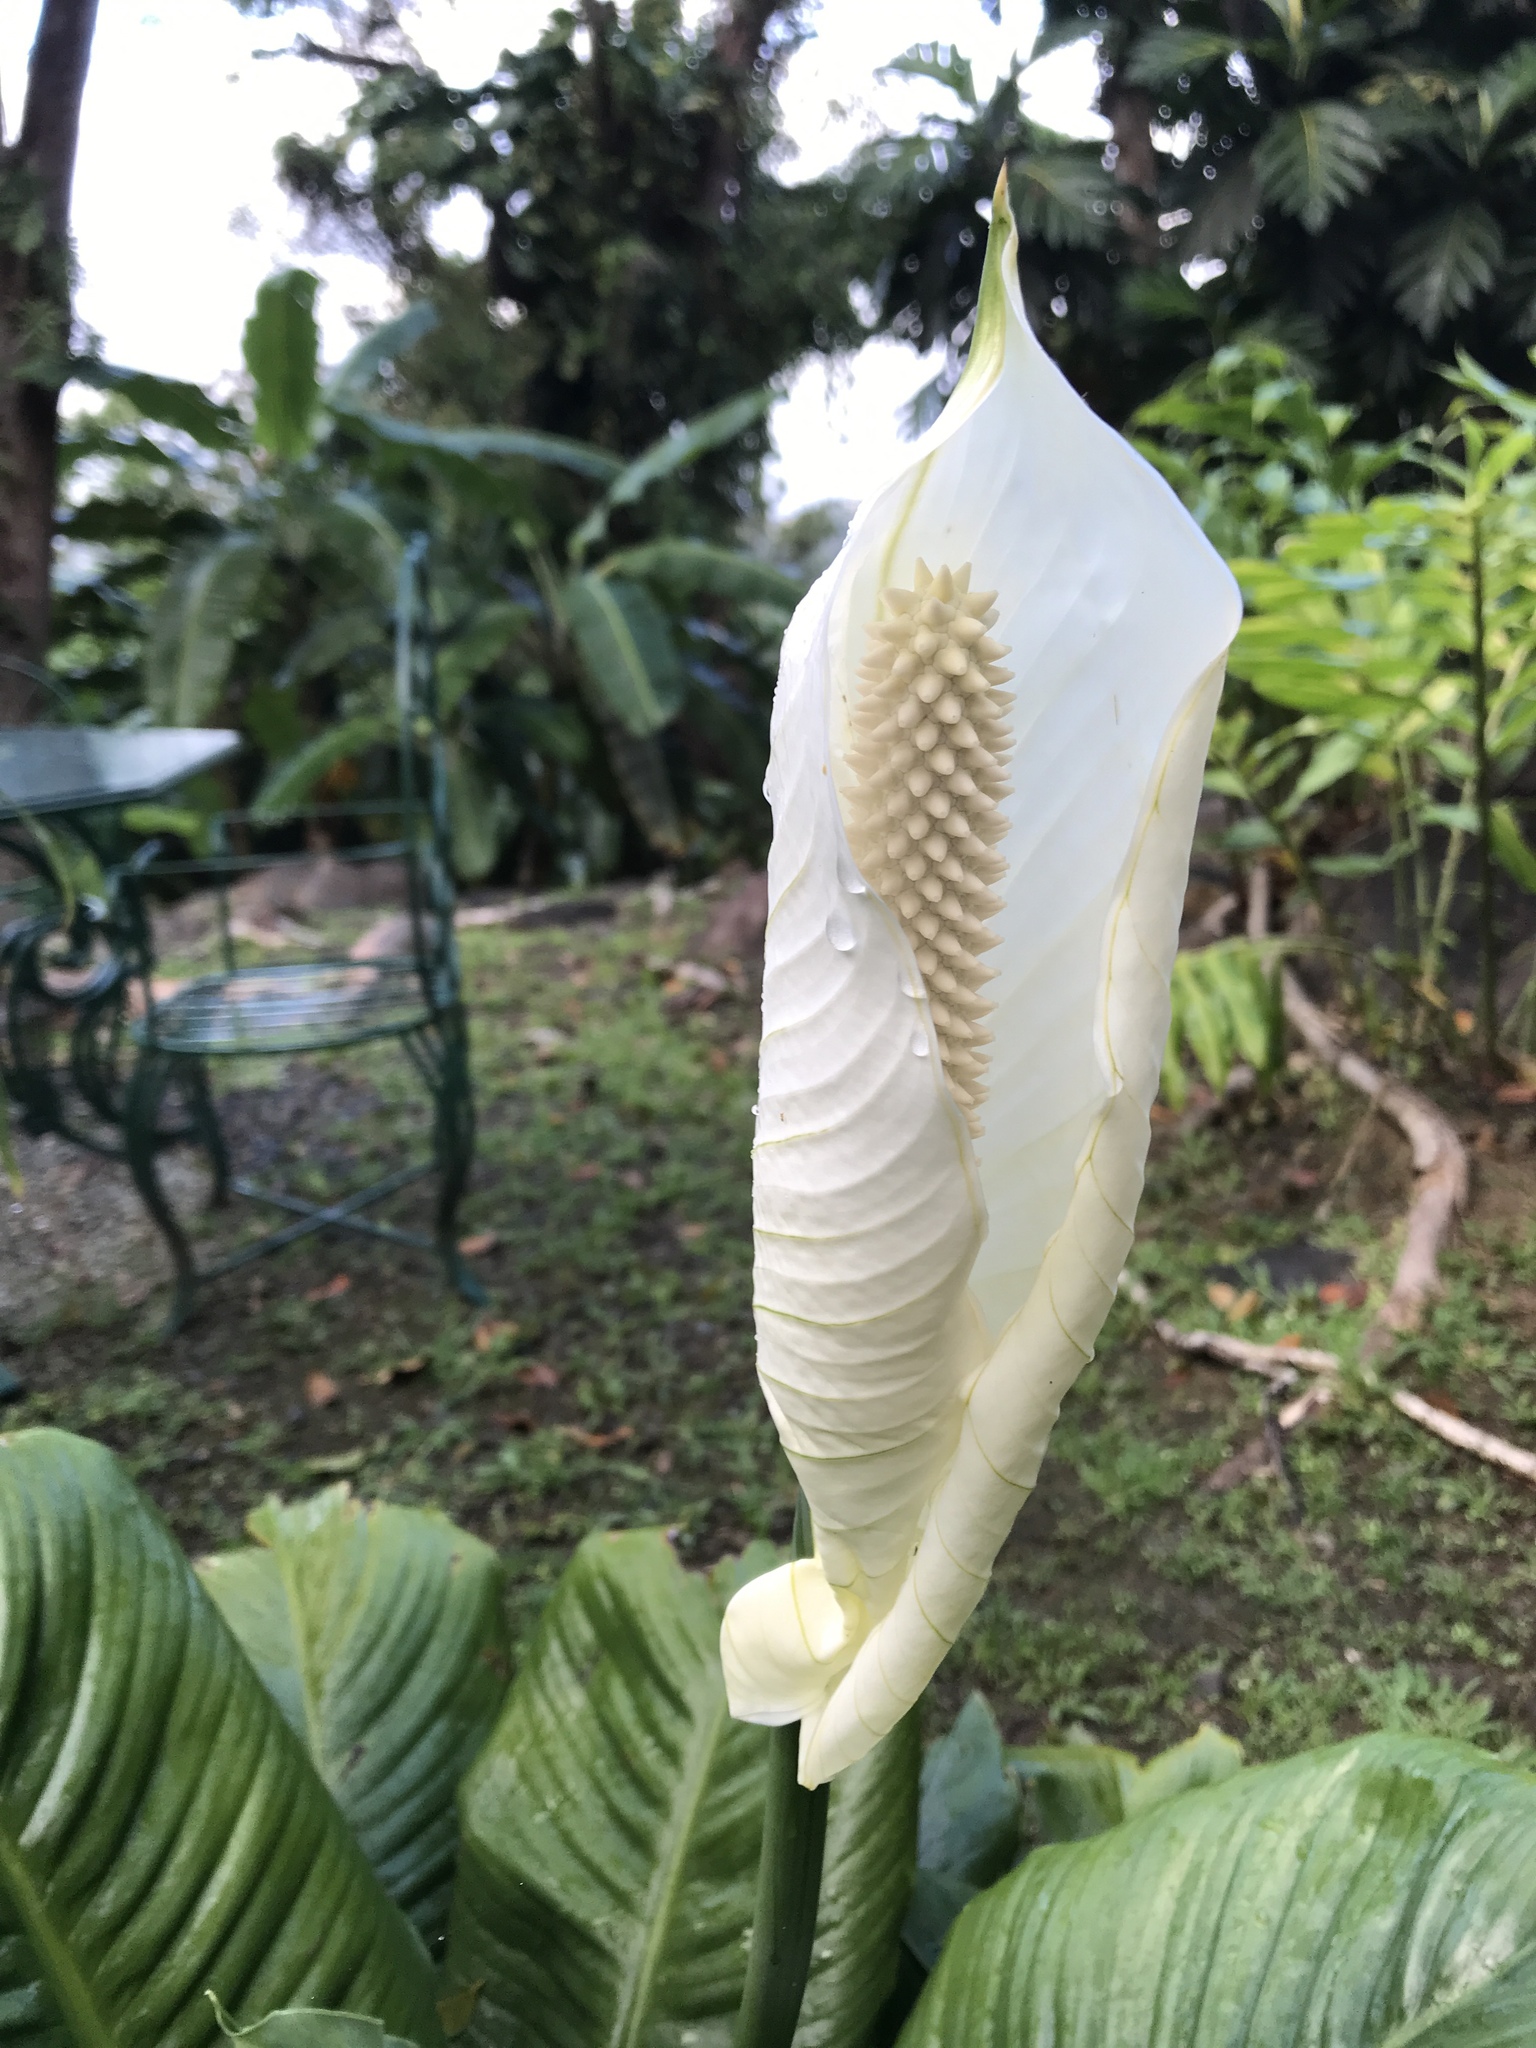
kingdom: Plantae
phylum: Tracheophyta
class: Liliopsida
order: Alismatales
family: Araceae
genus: Spathiphyllum
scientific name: Spathiphyllum wallisii
